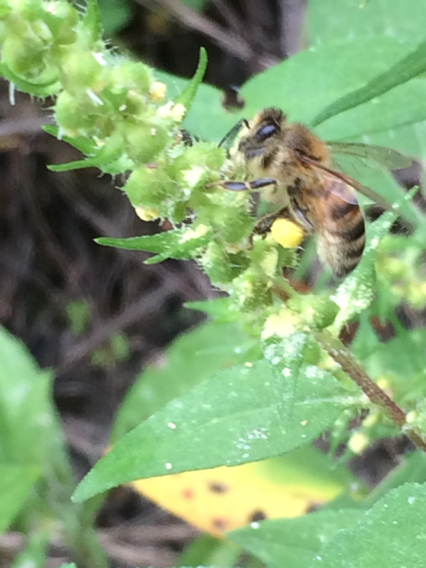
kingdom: Animalia
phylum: Arthropoda
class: Insecta
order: Hymenoptera
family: Apidae
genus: Apis
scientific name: Apis mellifera
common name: Honey bee
